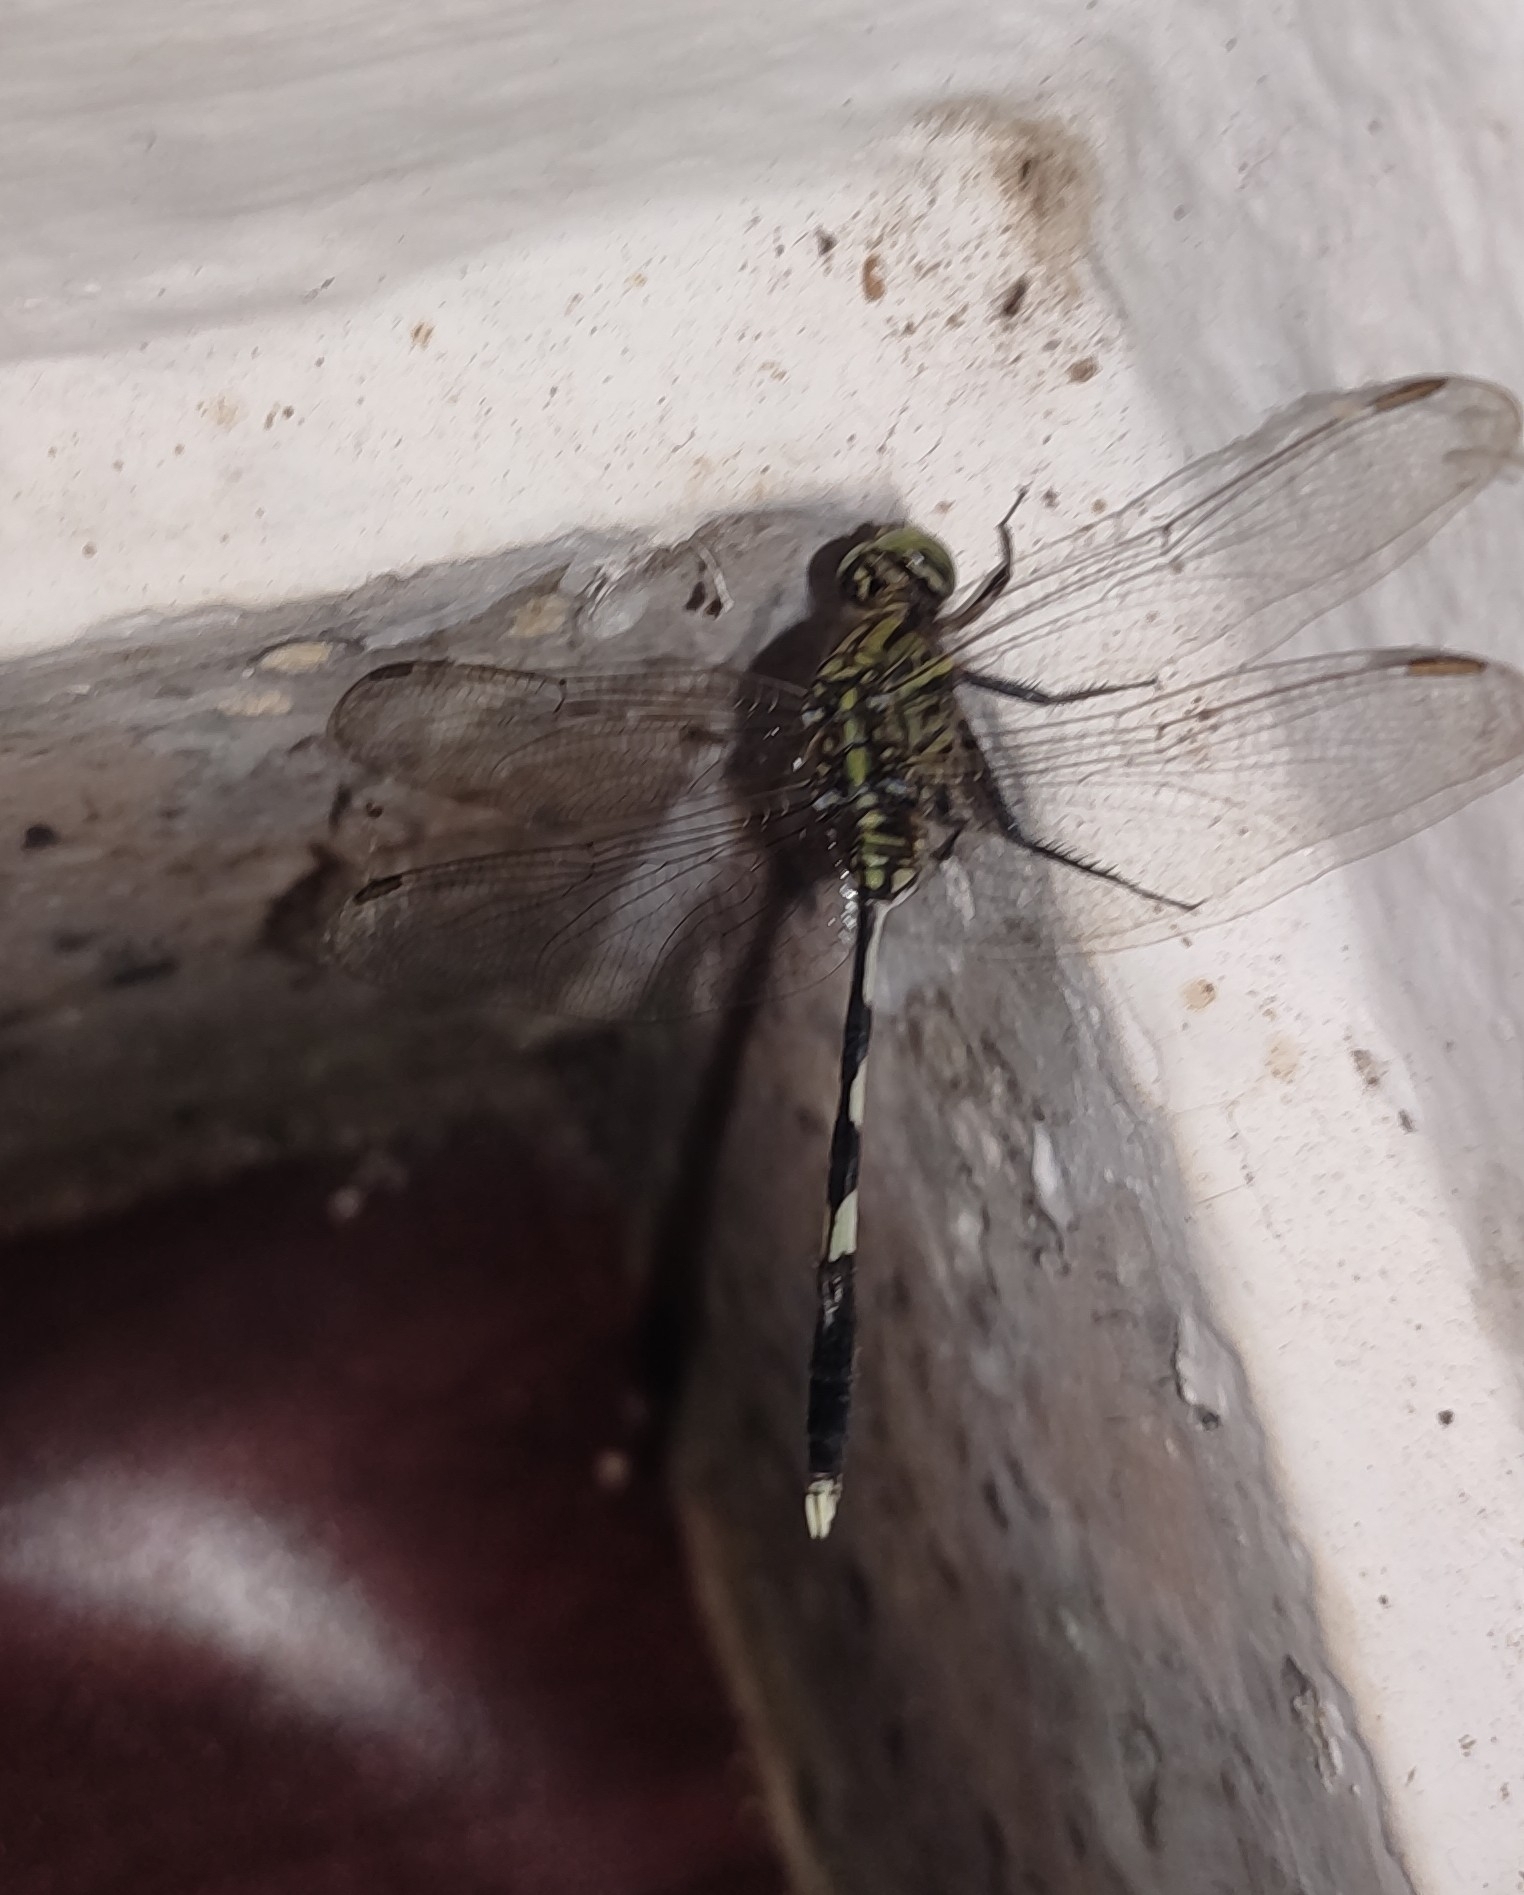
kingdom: Animalia
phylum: Arthropoda
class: Insecta
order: Odonata
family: Libellulidae
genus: Orthetrum
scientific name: Orthetrum sabina
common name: Slender skimmer
